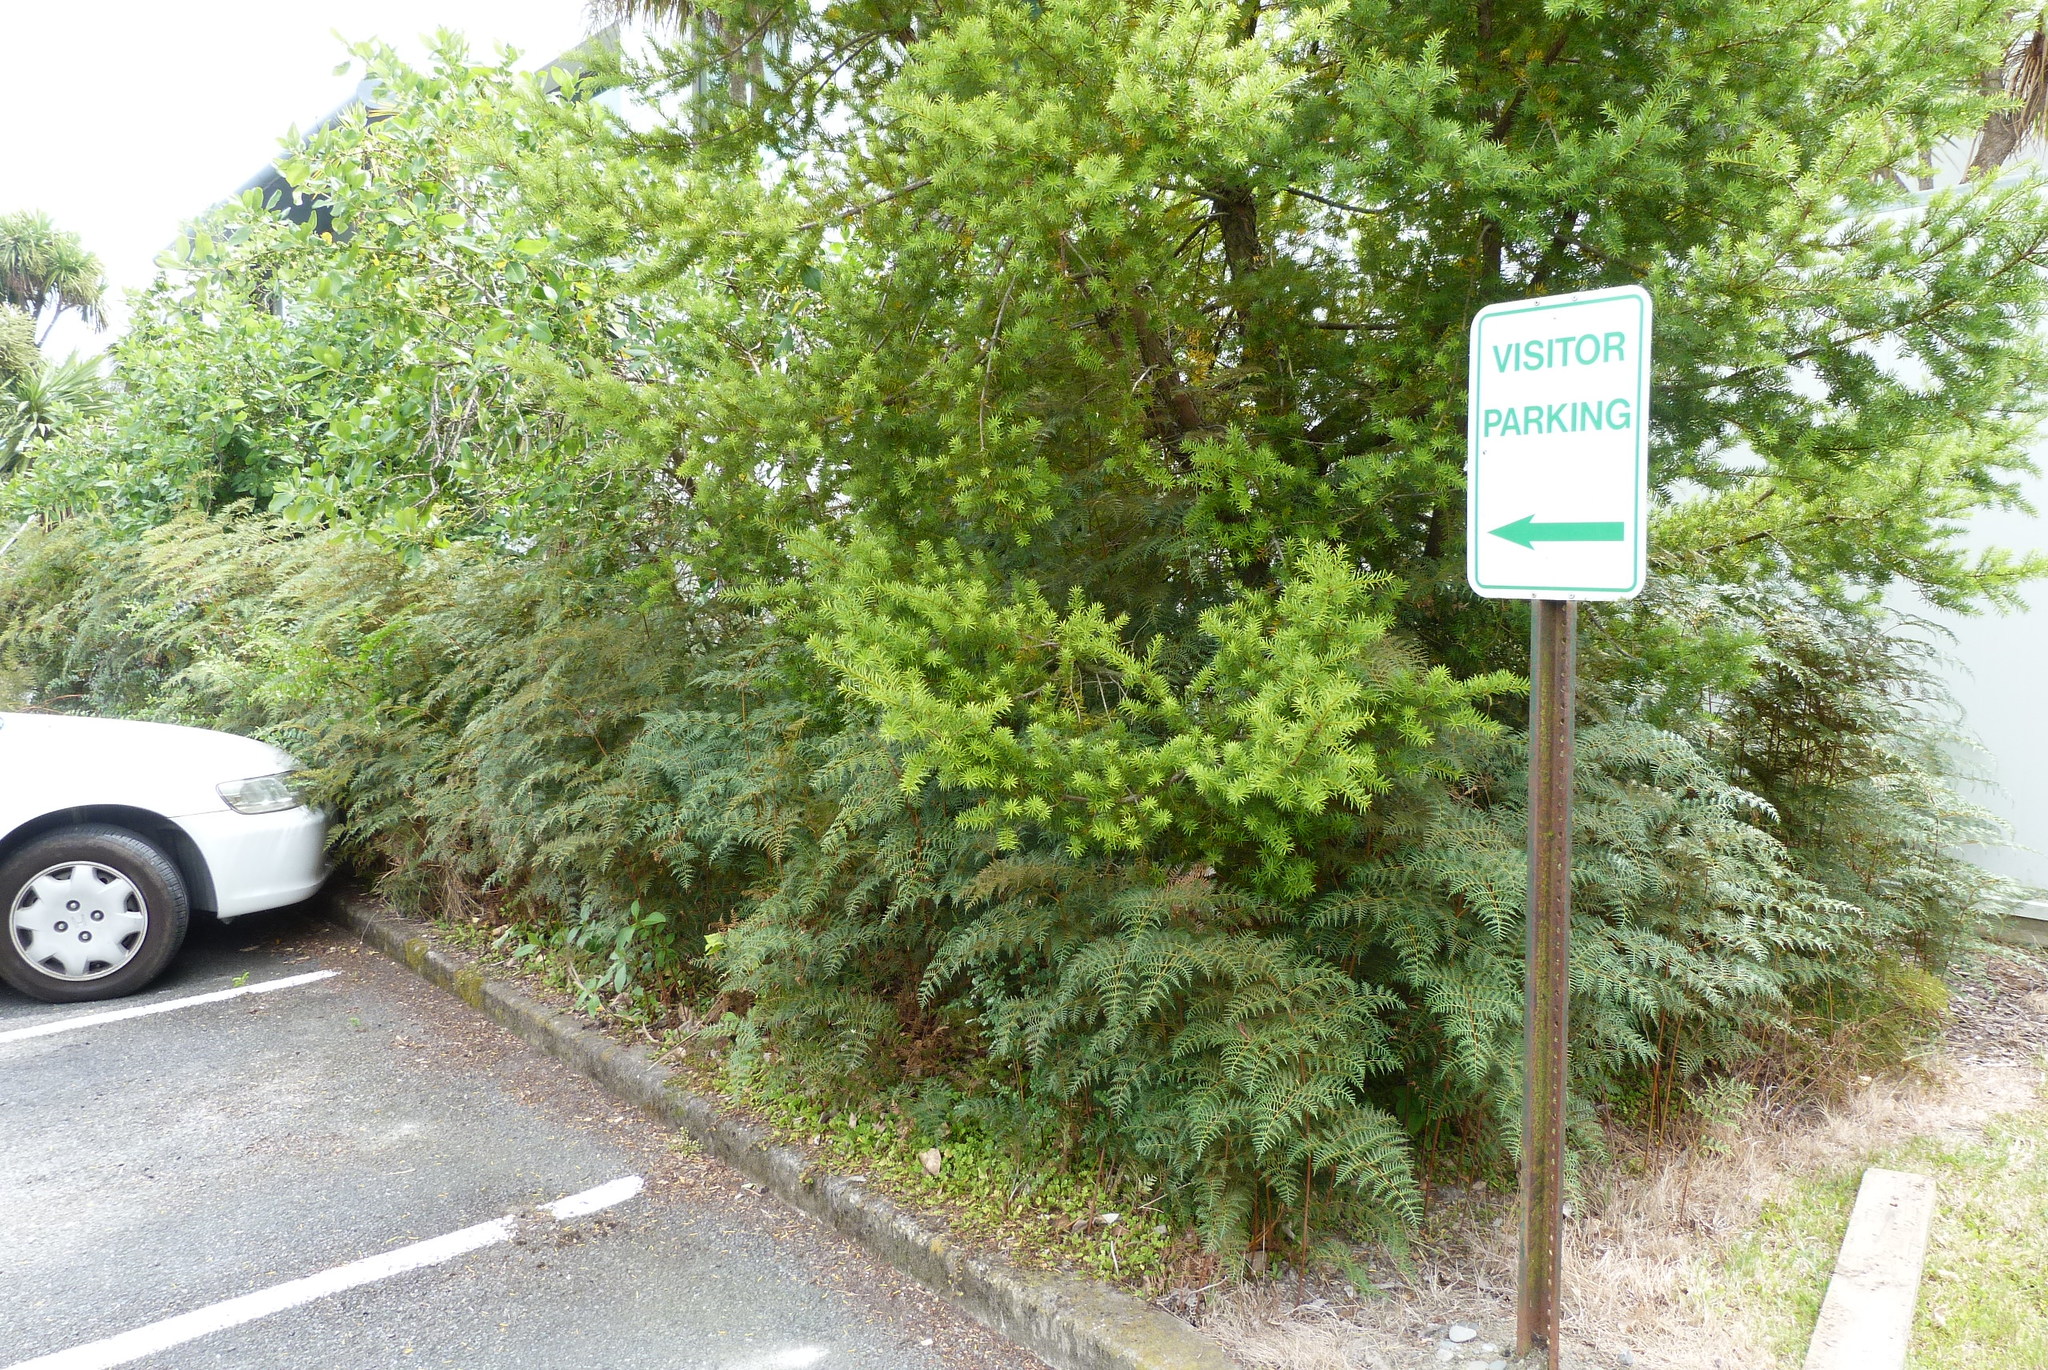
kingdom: Plantae
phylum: Tracheophyta
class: Polypodiopsida
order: Polypodiales
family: Dennstaedtiaceae
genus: Pteridium
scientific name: Pteridium esculentum
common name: Bracken fern
